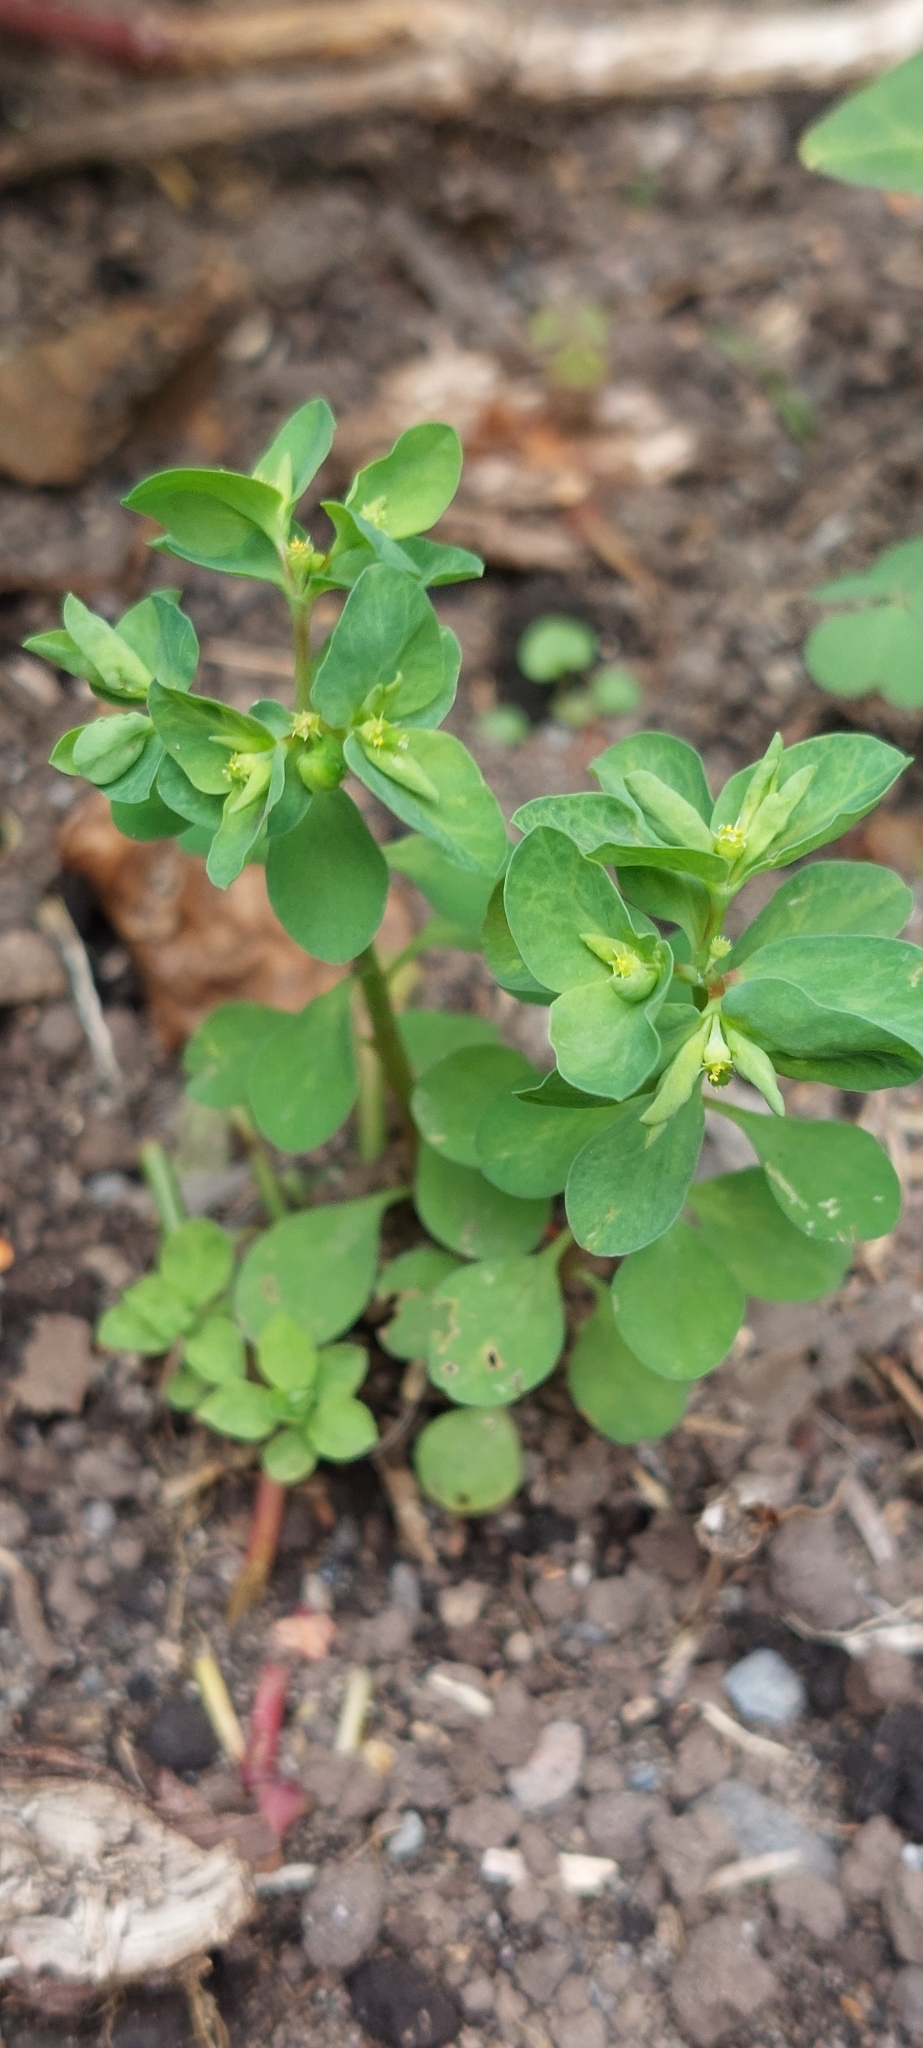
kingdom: Plantae
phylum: Tracheophyta
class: Magnoliopsida
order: Malpighiales
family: Euphorbiaceae
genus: Euphorbia
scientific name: Euphorbia peplus
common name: Petty spurge
